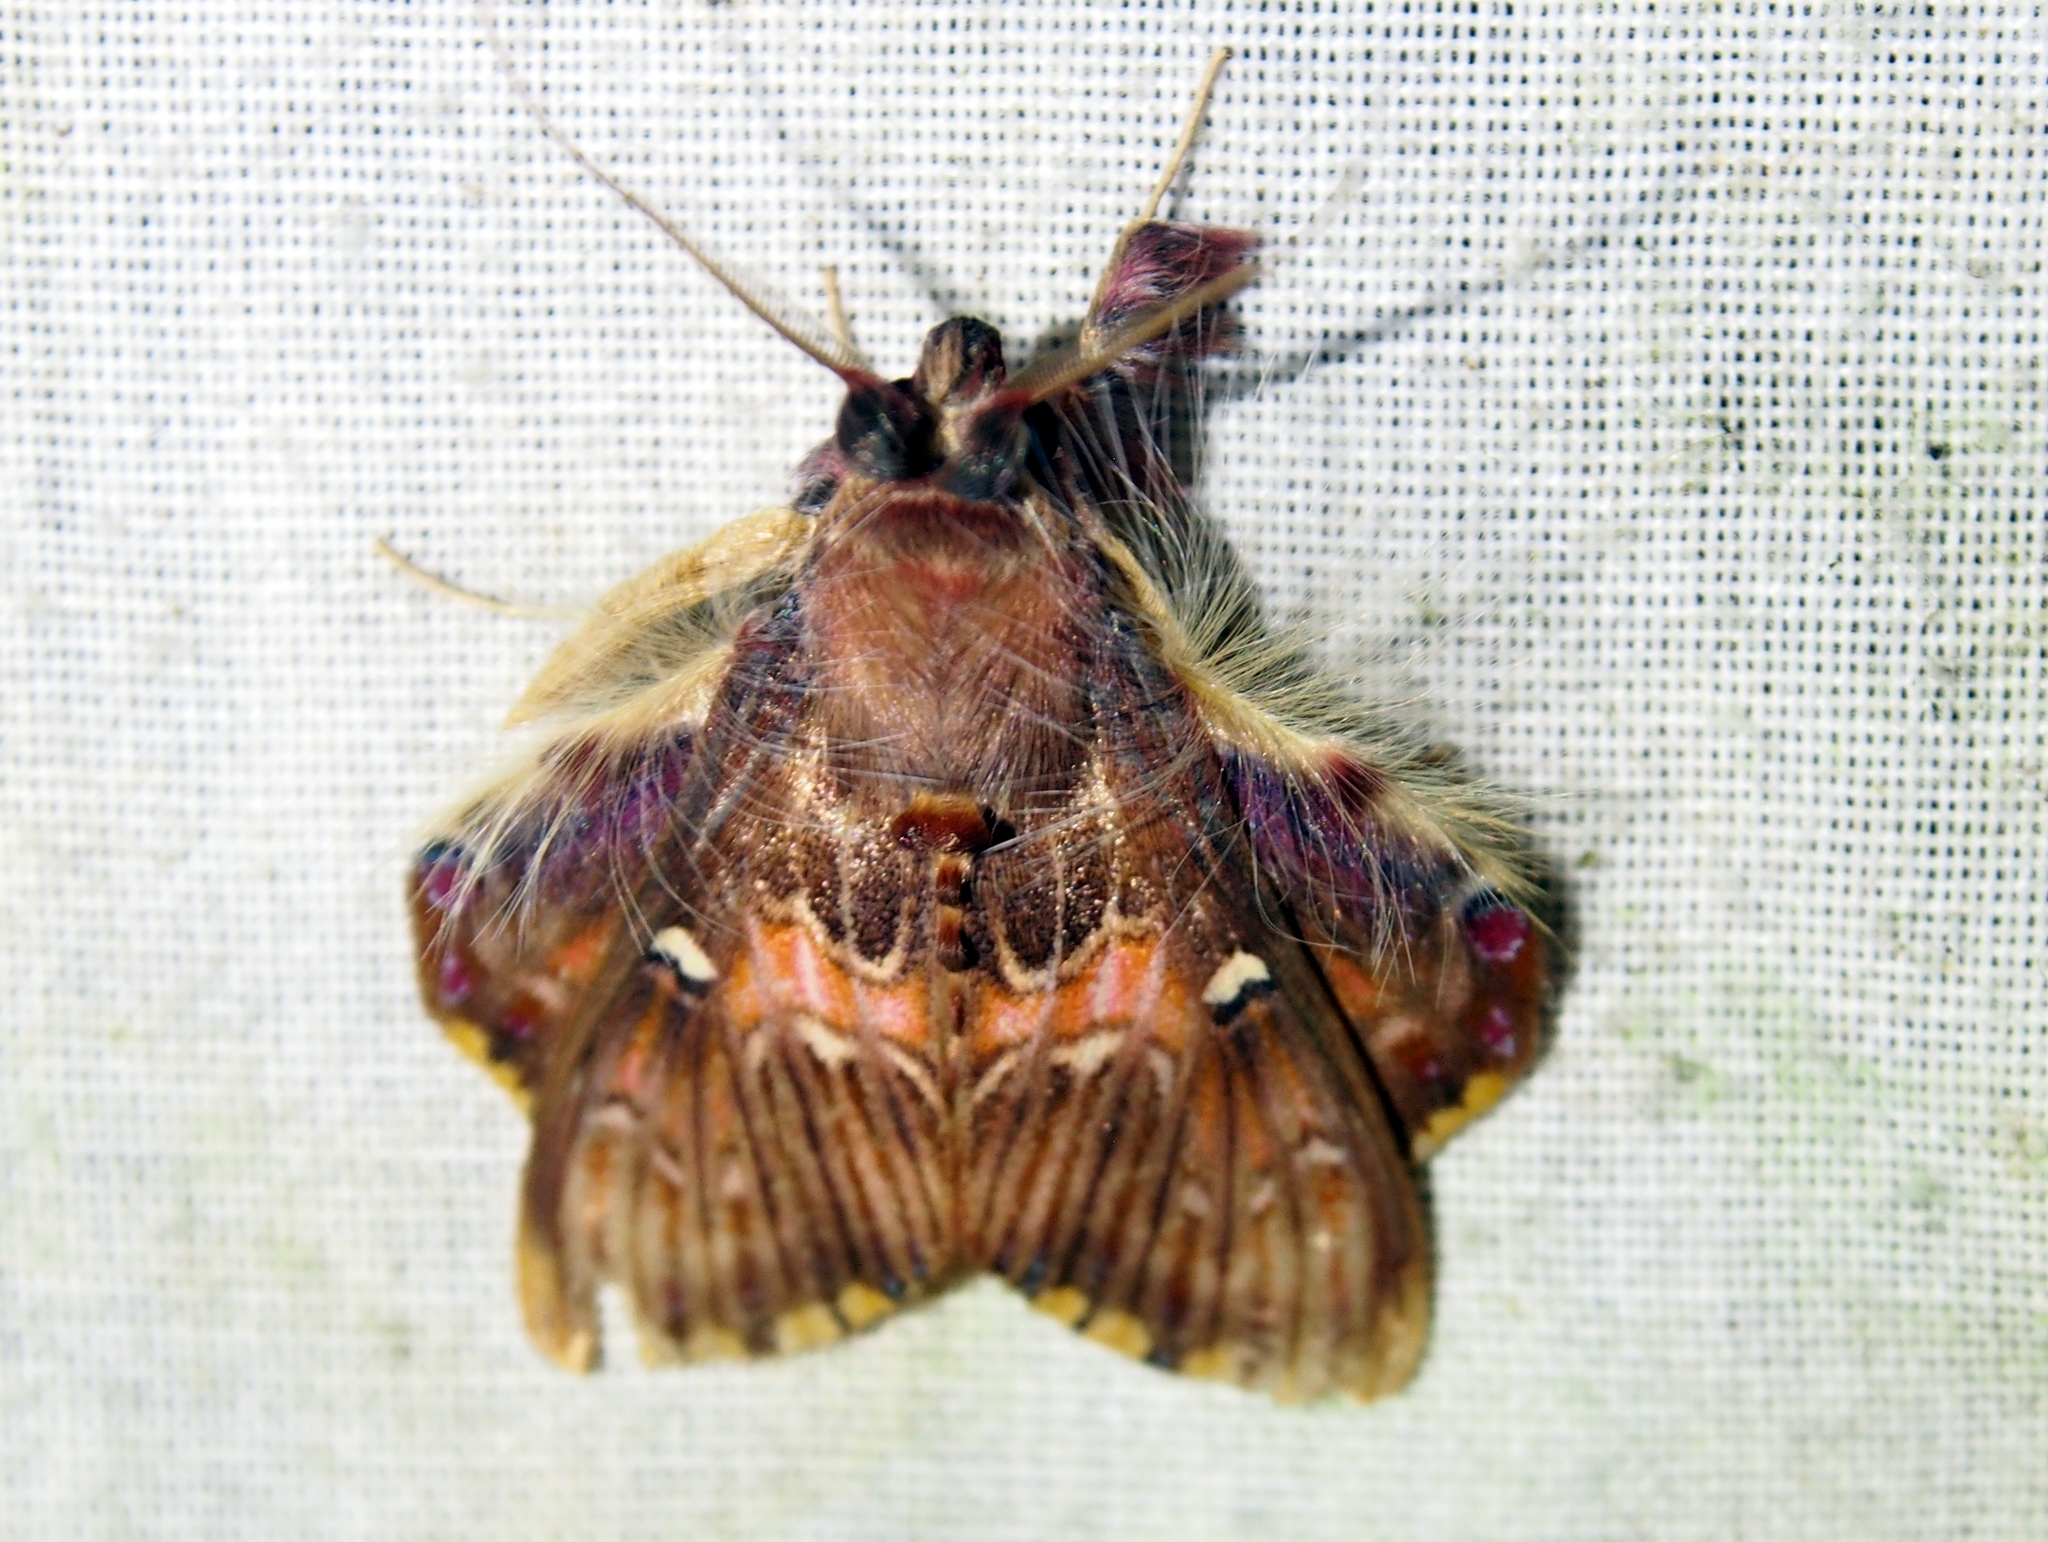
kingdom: Animalia
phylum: Arthropoda
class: Insecta
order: Lepidoptera
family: Erebidae
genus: Sosxetra
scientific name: Sosxetra grata
